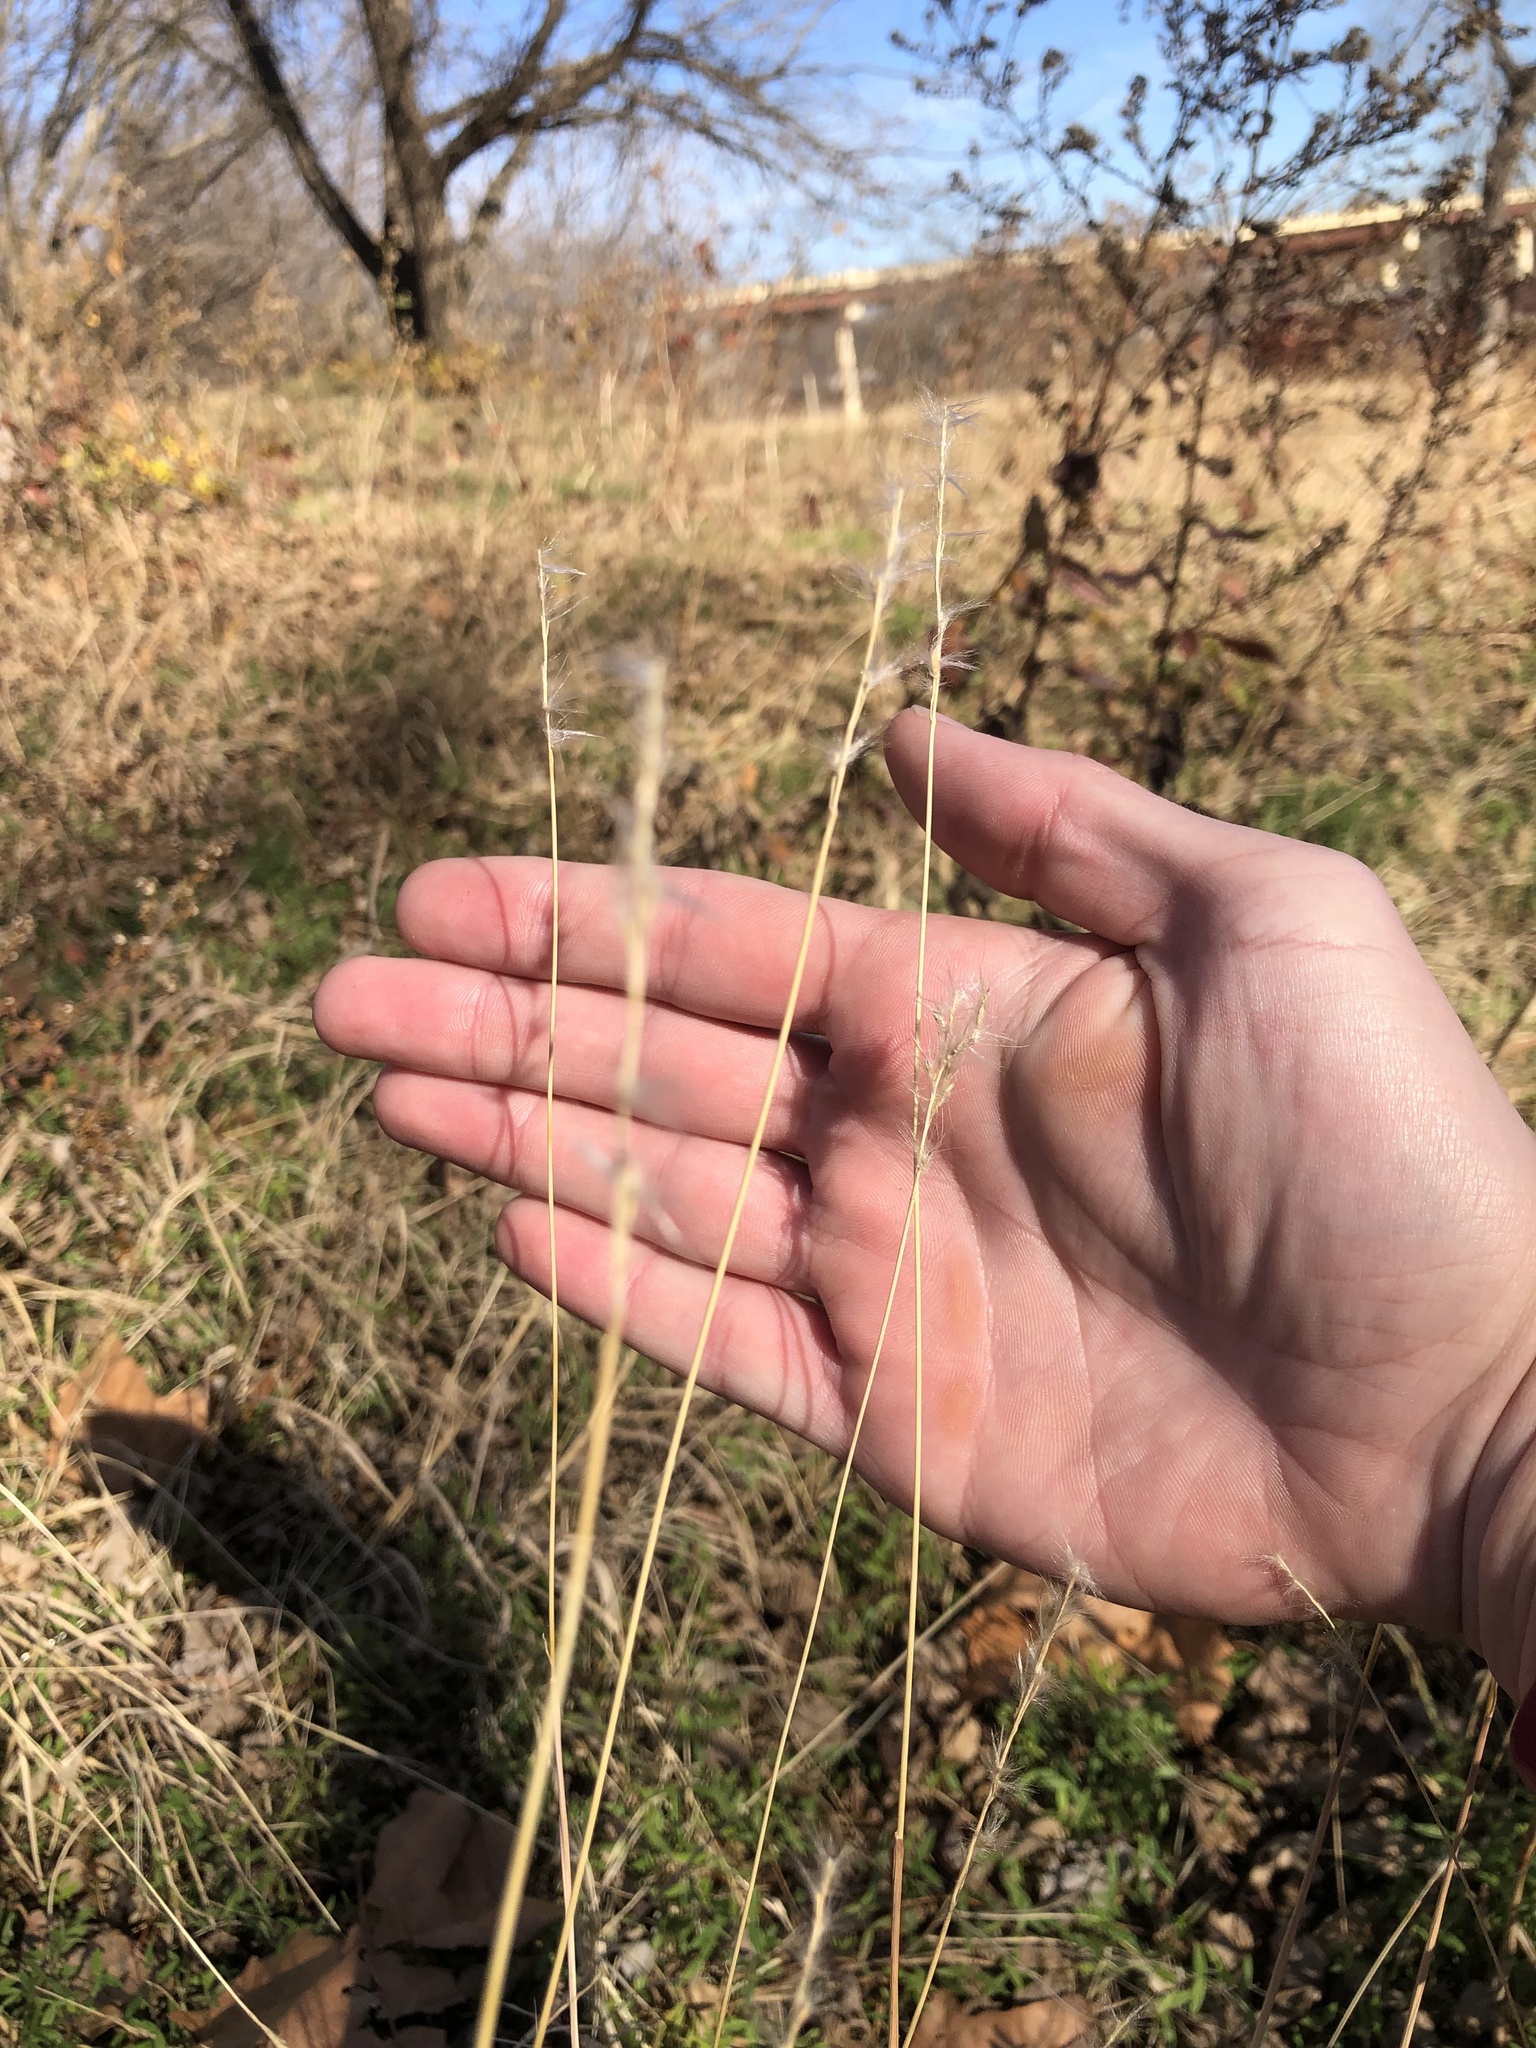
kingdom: Plantae
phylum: Tracheophyta
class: Liliopsida
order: Poales
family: Poaceae
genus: Bothriochloa
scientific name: Bothriochloa torreyana
